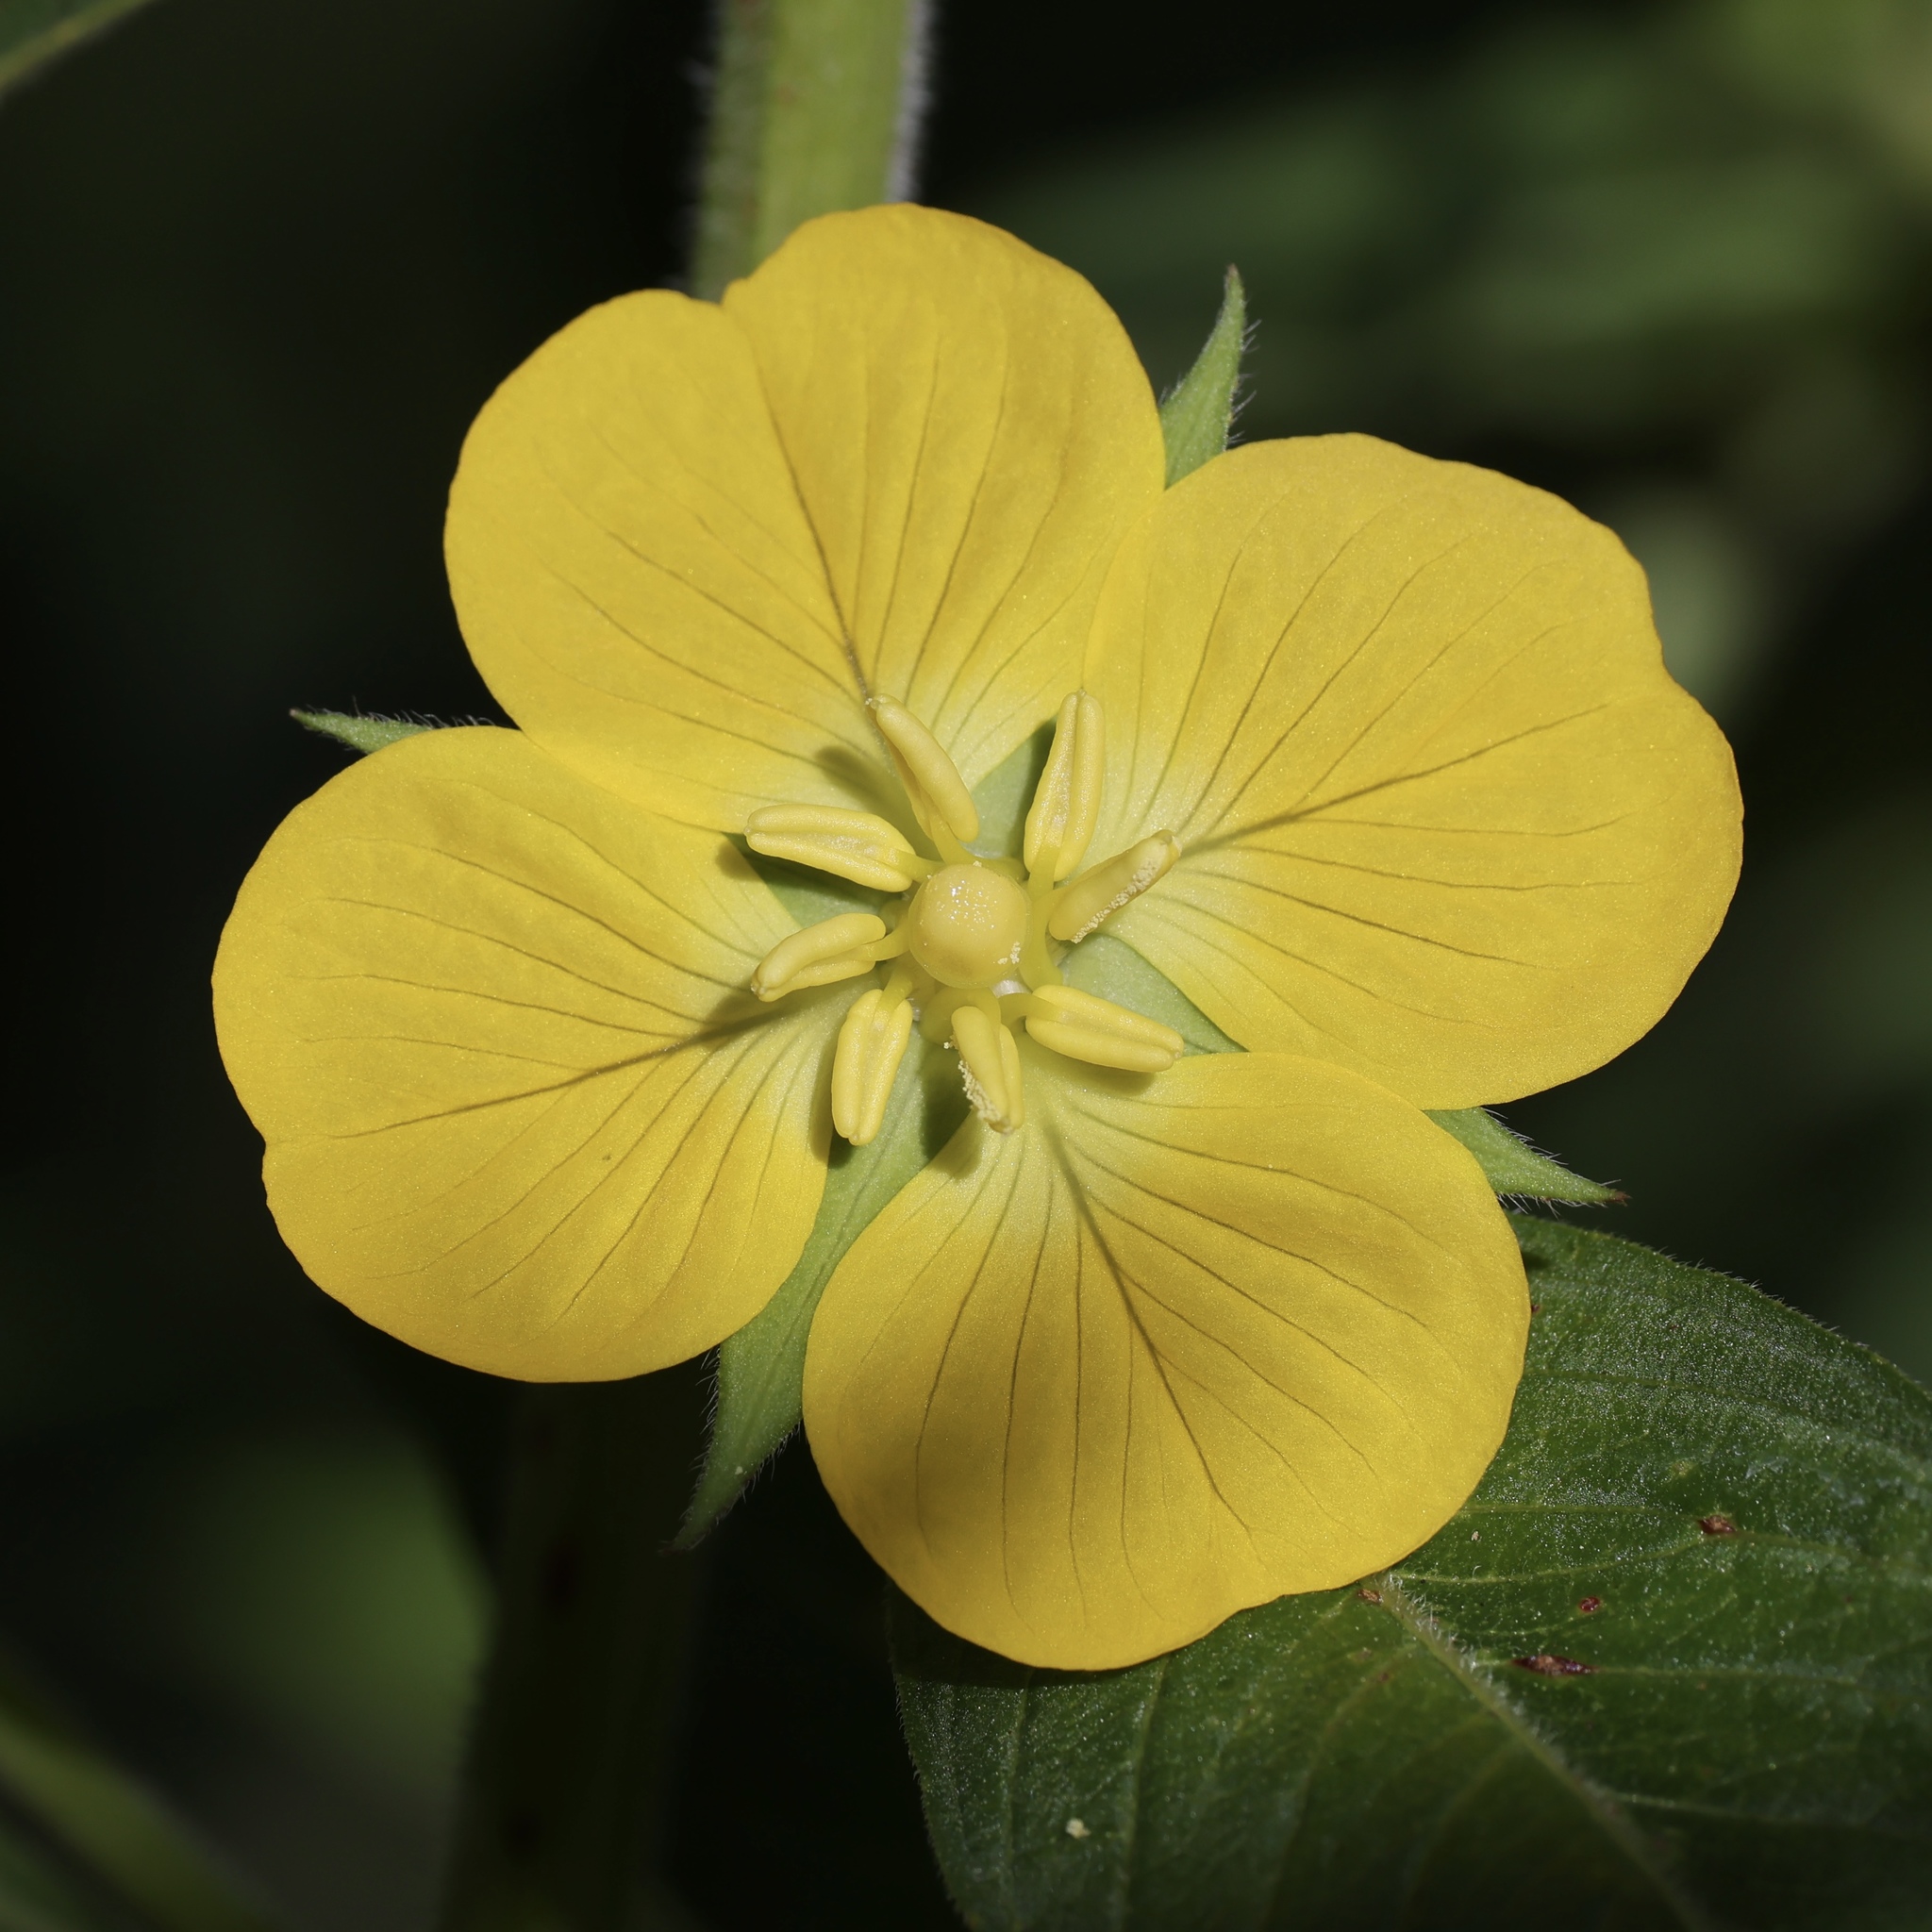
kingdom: Plantae
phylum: Tracheophyta
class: Magnoliopsida
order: Myrtales
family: Onagraceae
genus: Ludwigia
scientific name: Ludwigia peruviana
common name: Peruvian primrose-willow
